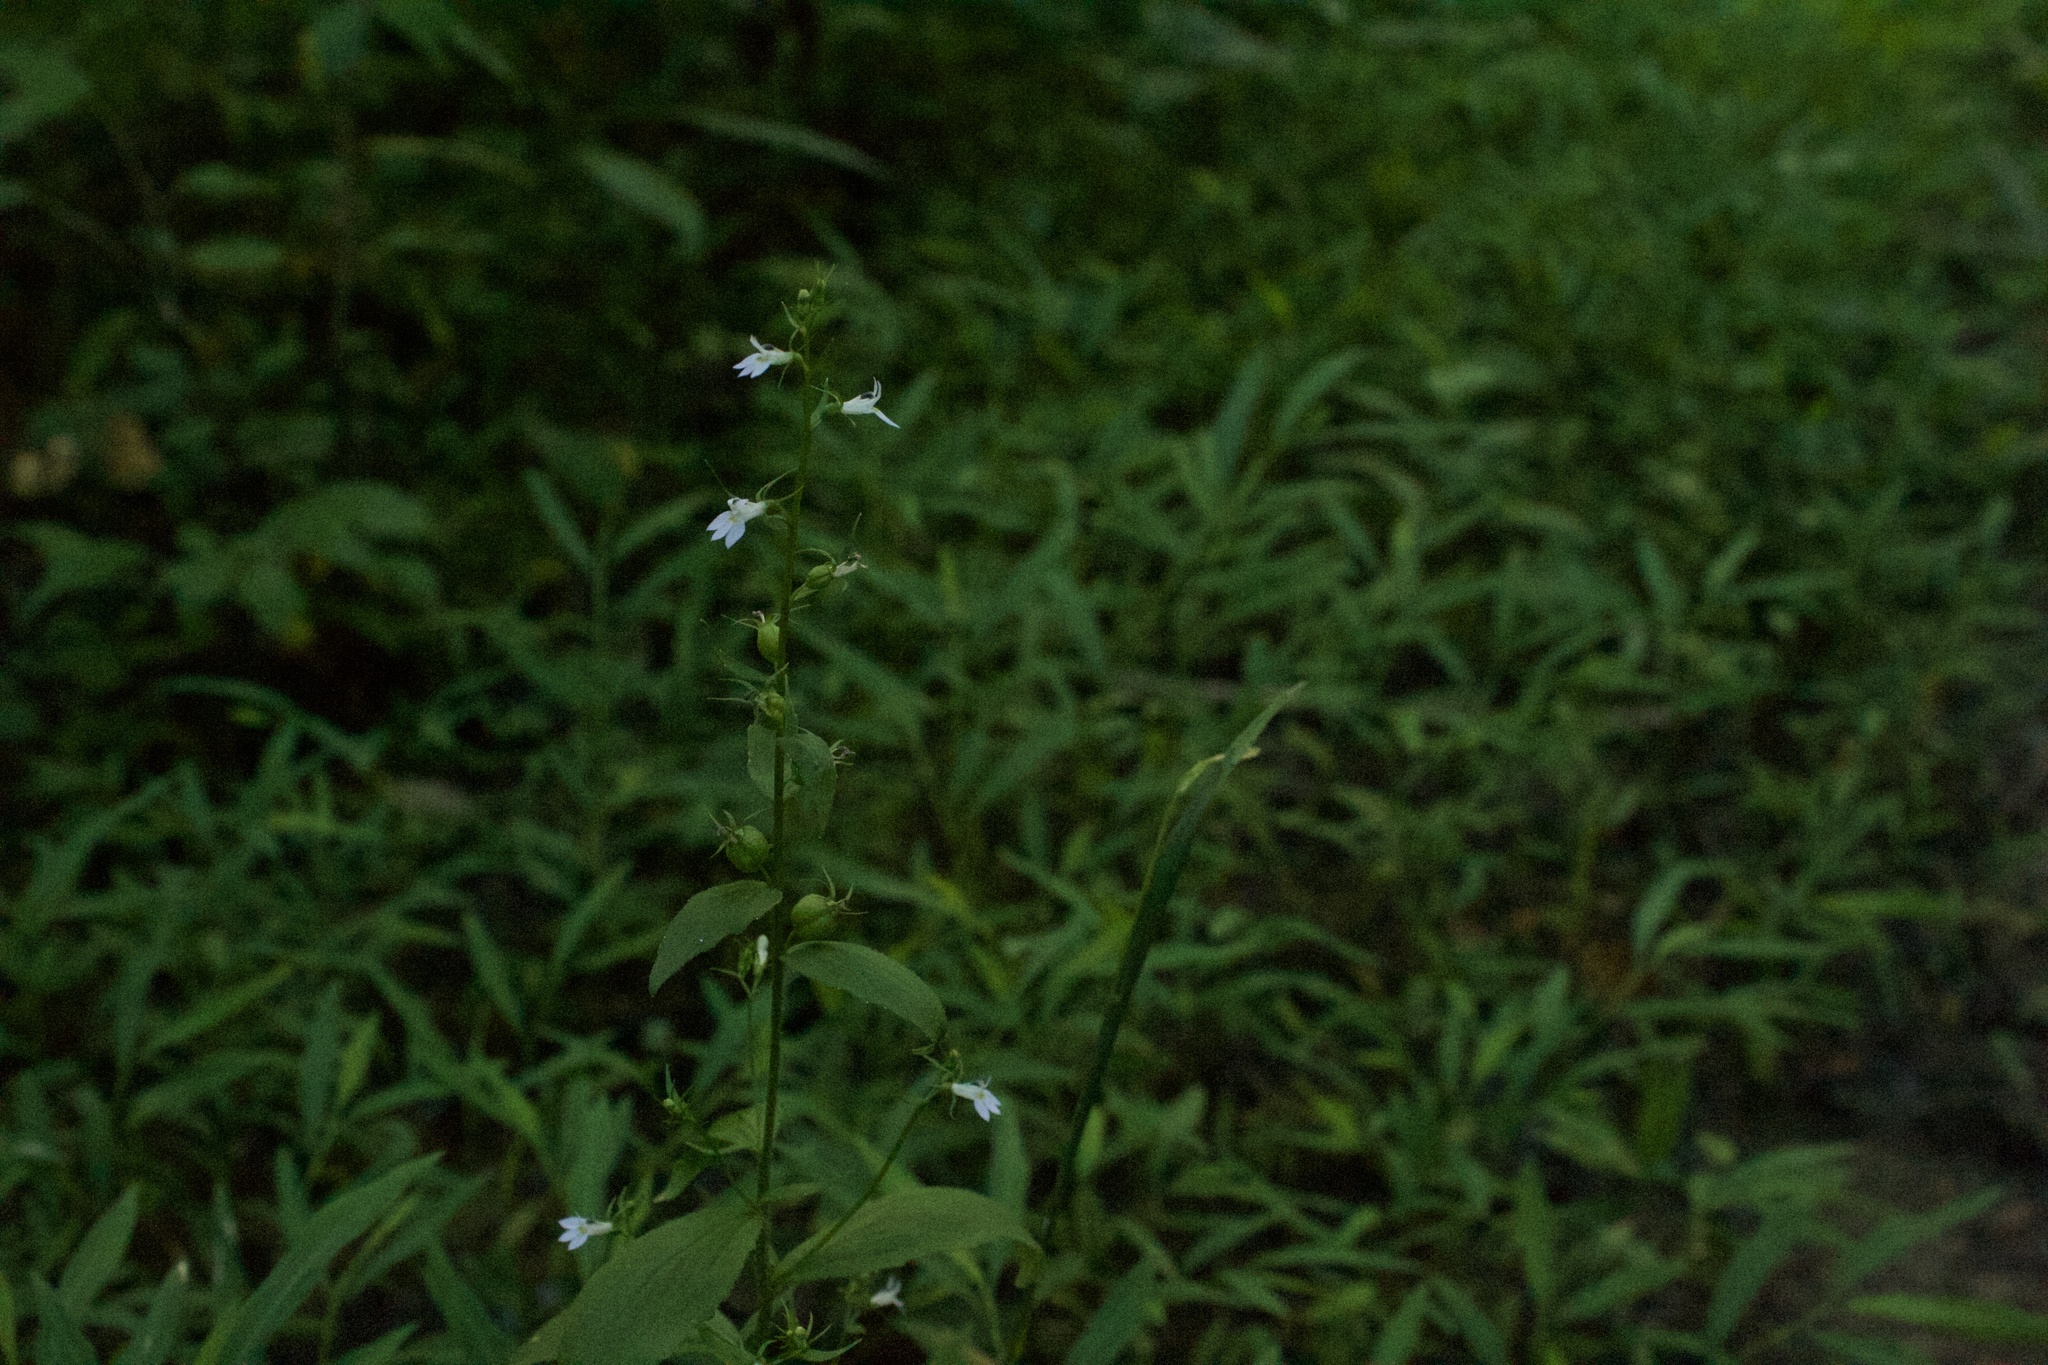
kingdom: Plantae
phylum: Tracheophyta
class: Magnoliopsida
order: Asterales
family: Campanulaceae
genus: Lobelia
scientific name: Lobelia inflata
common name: Indian tobacco
